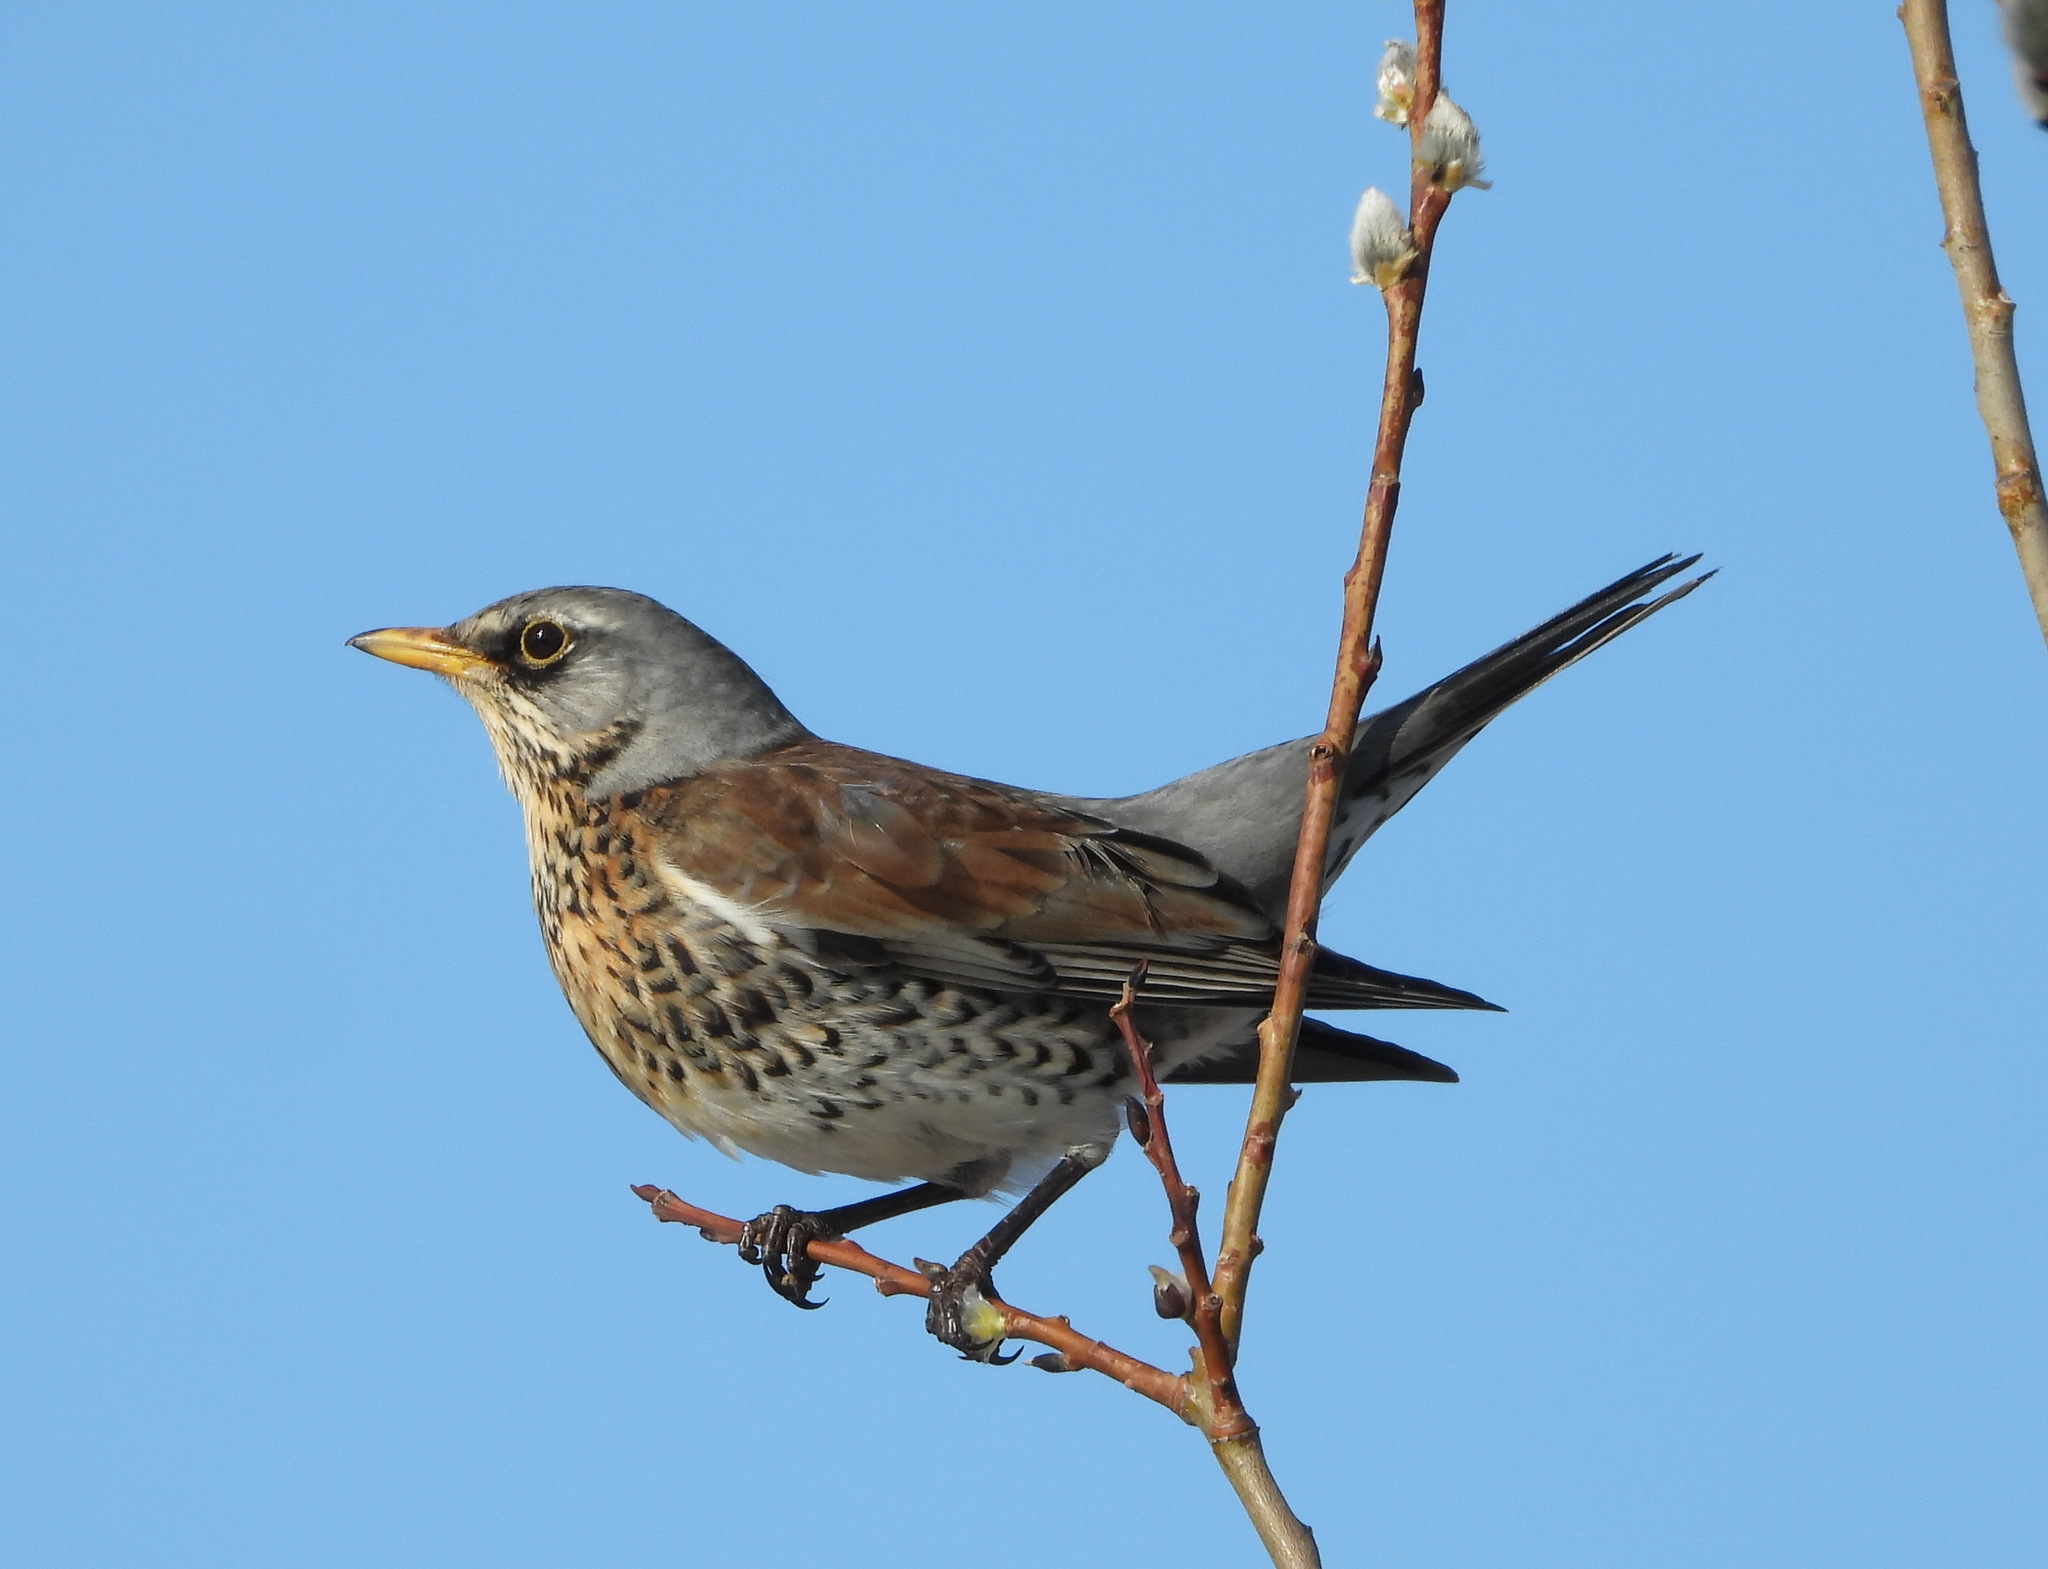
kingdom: Animalia
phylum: Chordata
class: Aves
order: Passeriformes
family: Turdidae
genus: Turdus
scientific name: Turdus pilaris
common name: Fieldfare
